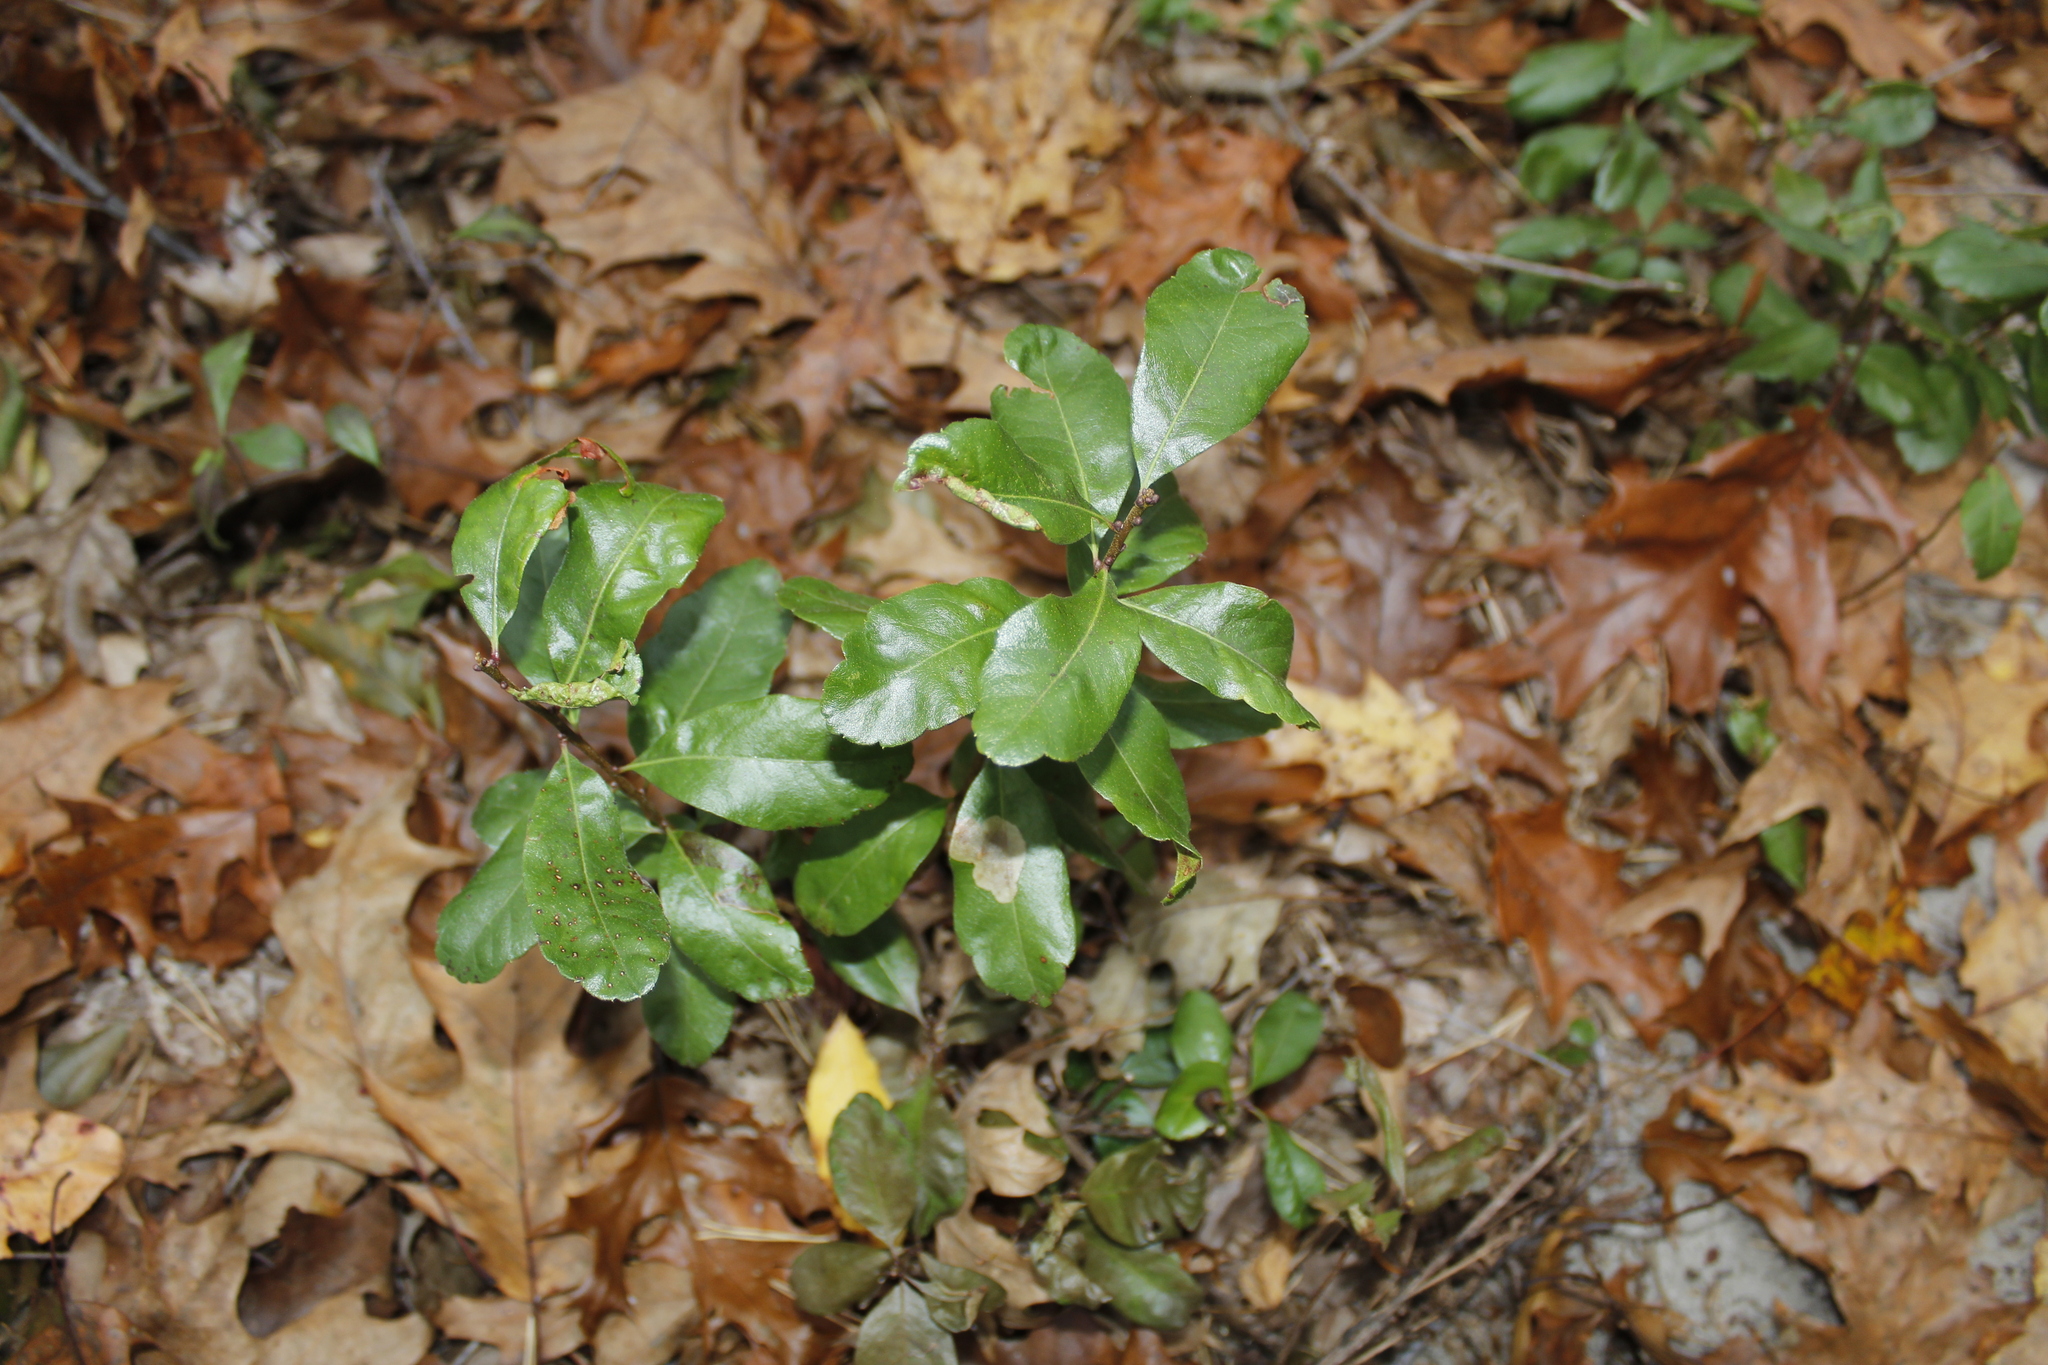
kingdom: Plantae
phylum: Tracheophyta
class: Magnoliopsida
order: Fagales
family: Myricaceae
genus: Morella
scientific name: Morella pensylvanica
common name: Northern bayberry
